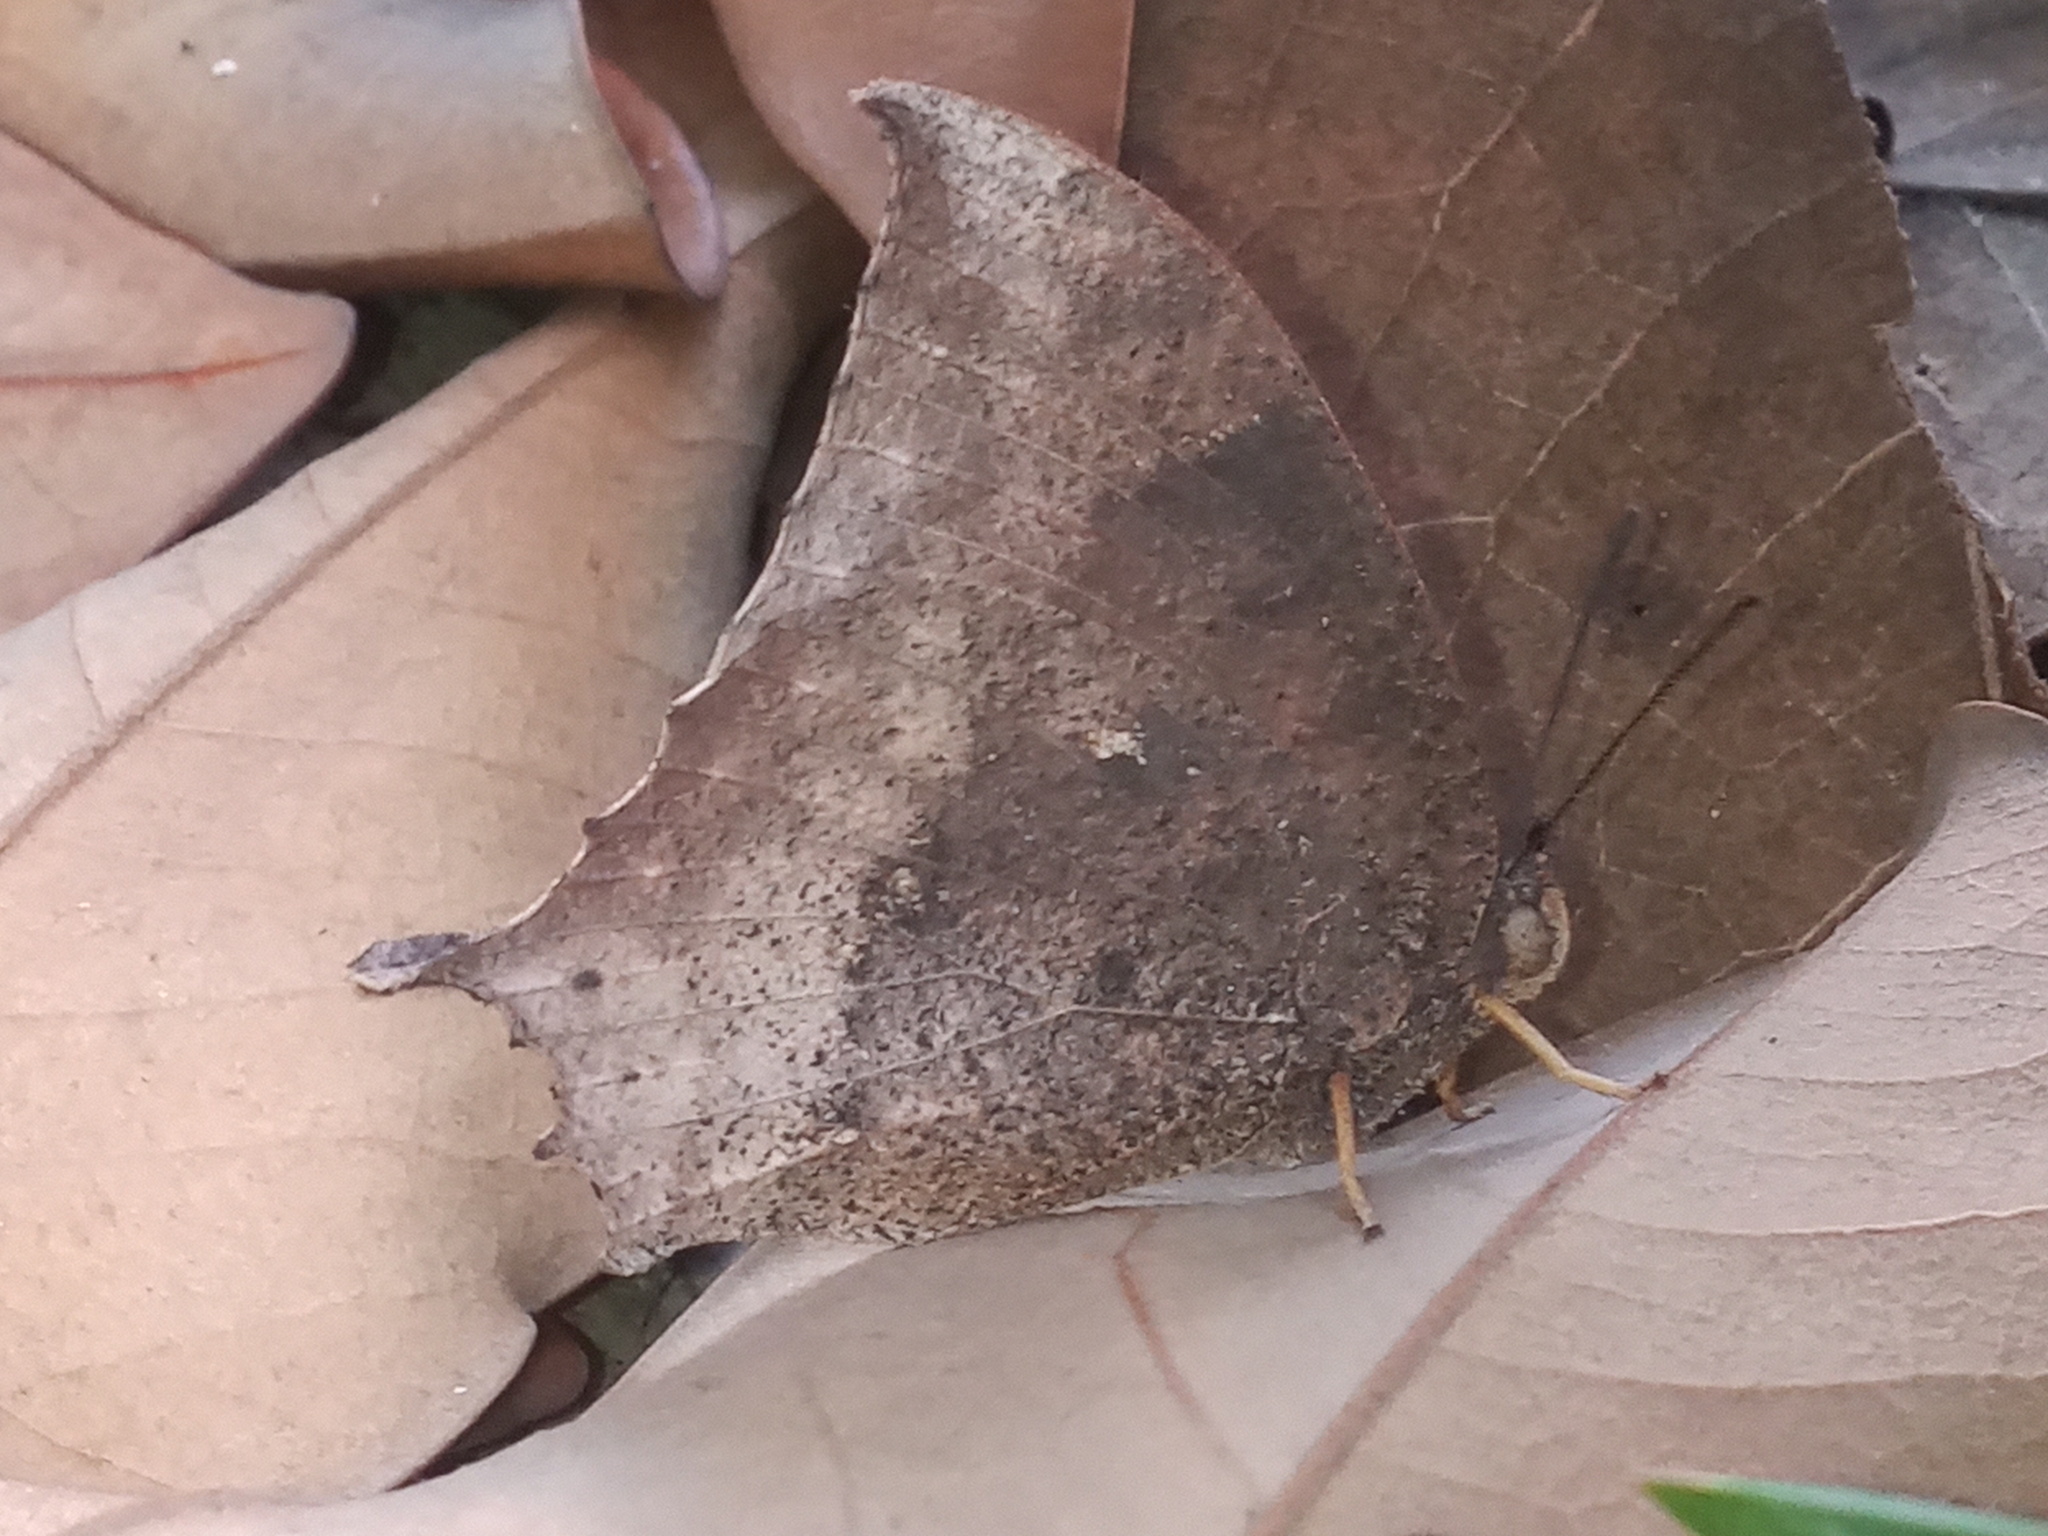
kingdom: Animalia
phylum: Arthropoda
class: Insecta
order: Lepidoptera
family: Nymphalidae
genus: Anaea
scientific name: Anaea aidea
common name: Tropical leafwing
